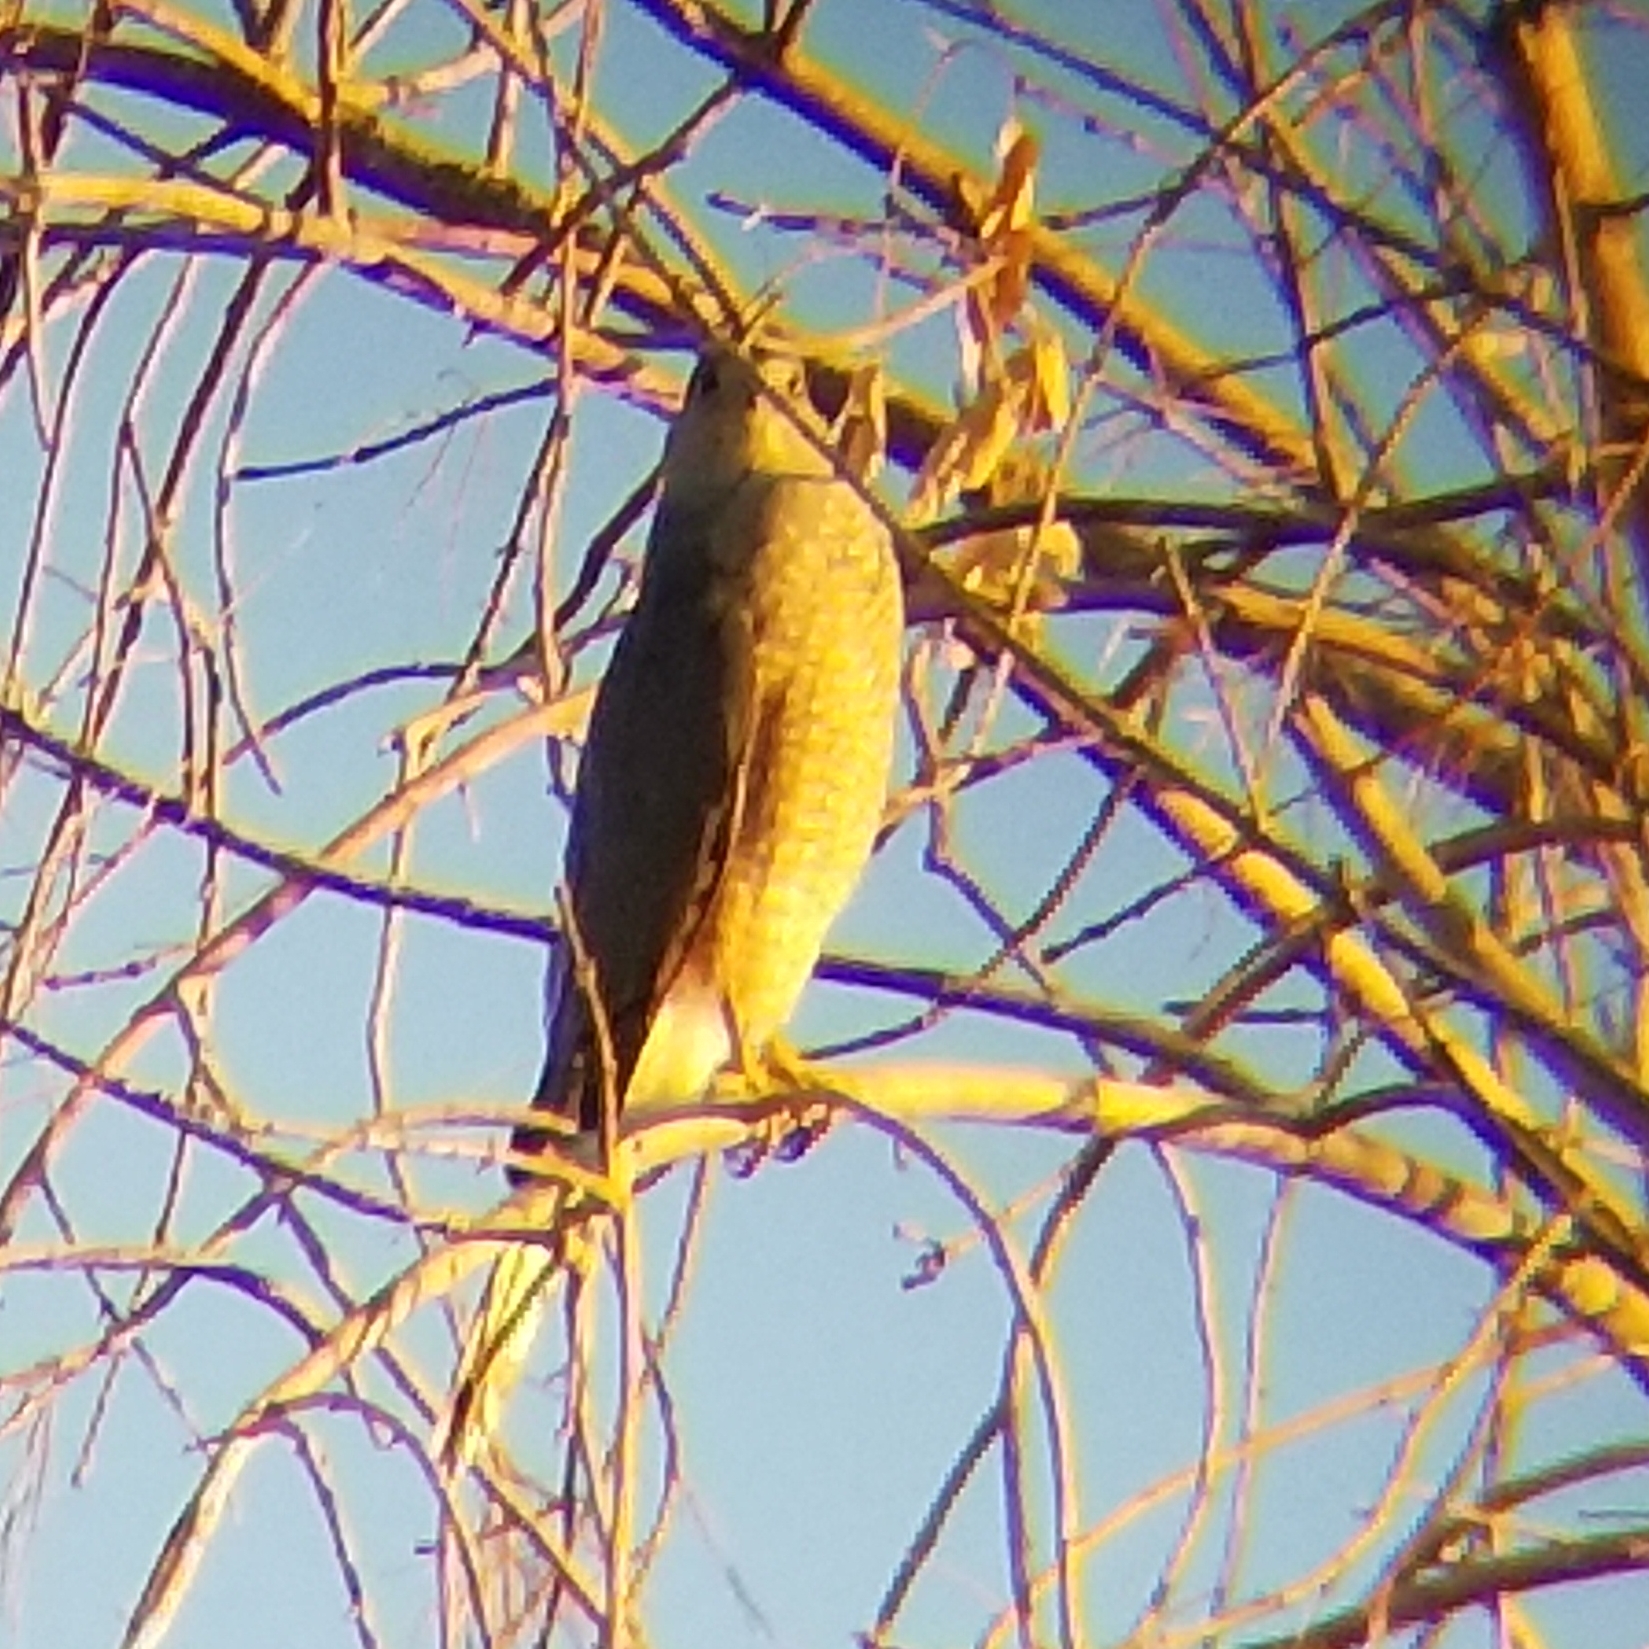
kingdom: Animalia
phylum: Chordata
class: Aves
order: Accipitriformes
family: Accipitridae
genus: Accipiter
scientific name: Accipiter cooperii
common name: Cooper's hawk
